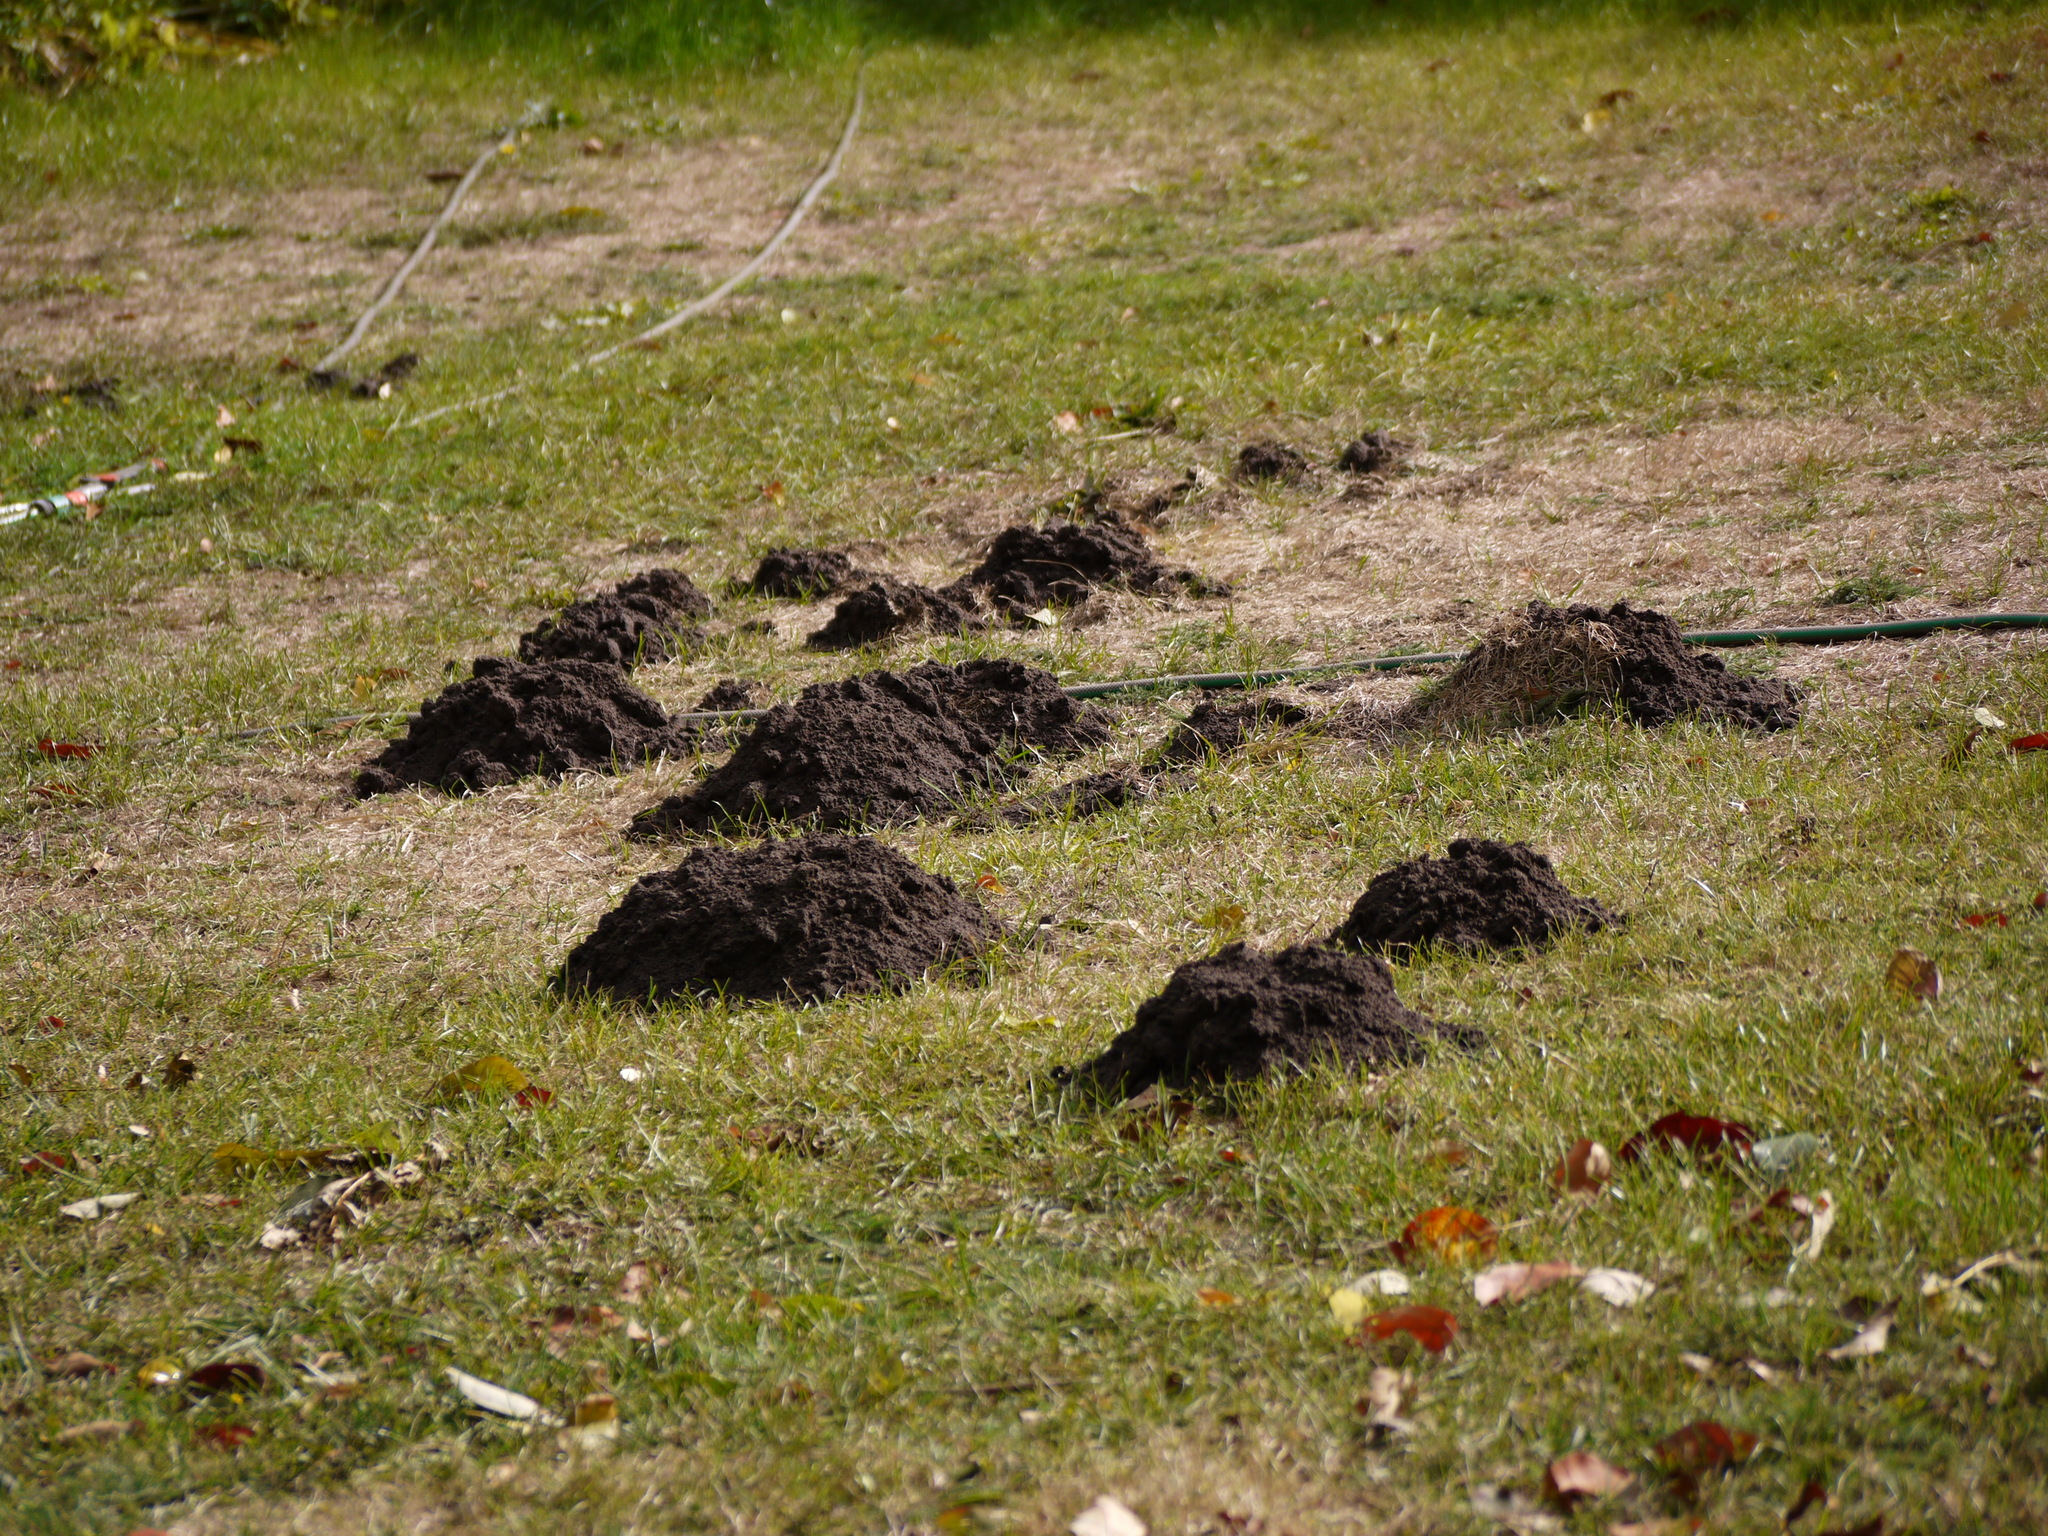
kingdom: Animalia
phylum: Chordata
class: Mammalia
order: Soricomorpha
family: Talpidae
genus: Talpa
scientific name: Talpa europaea
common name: European mole
